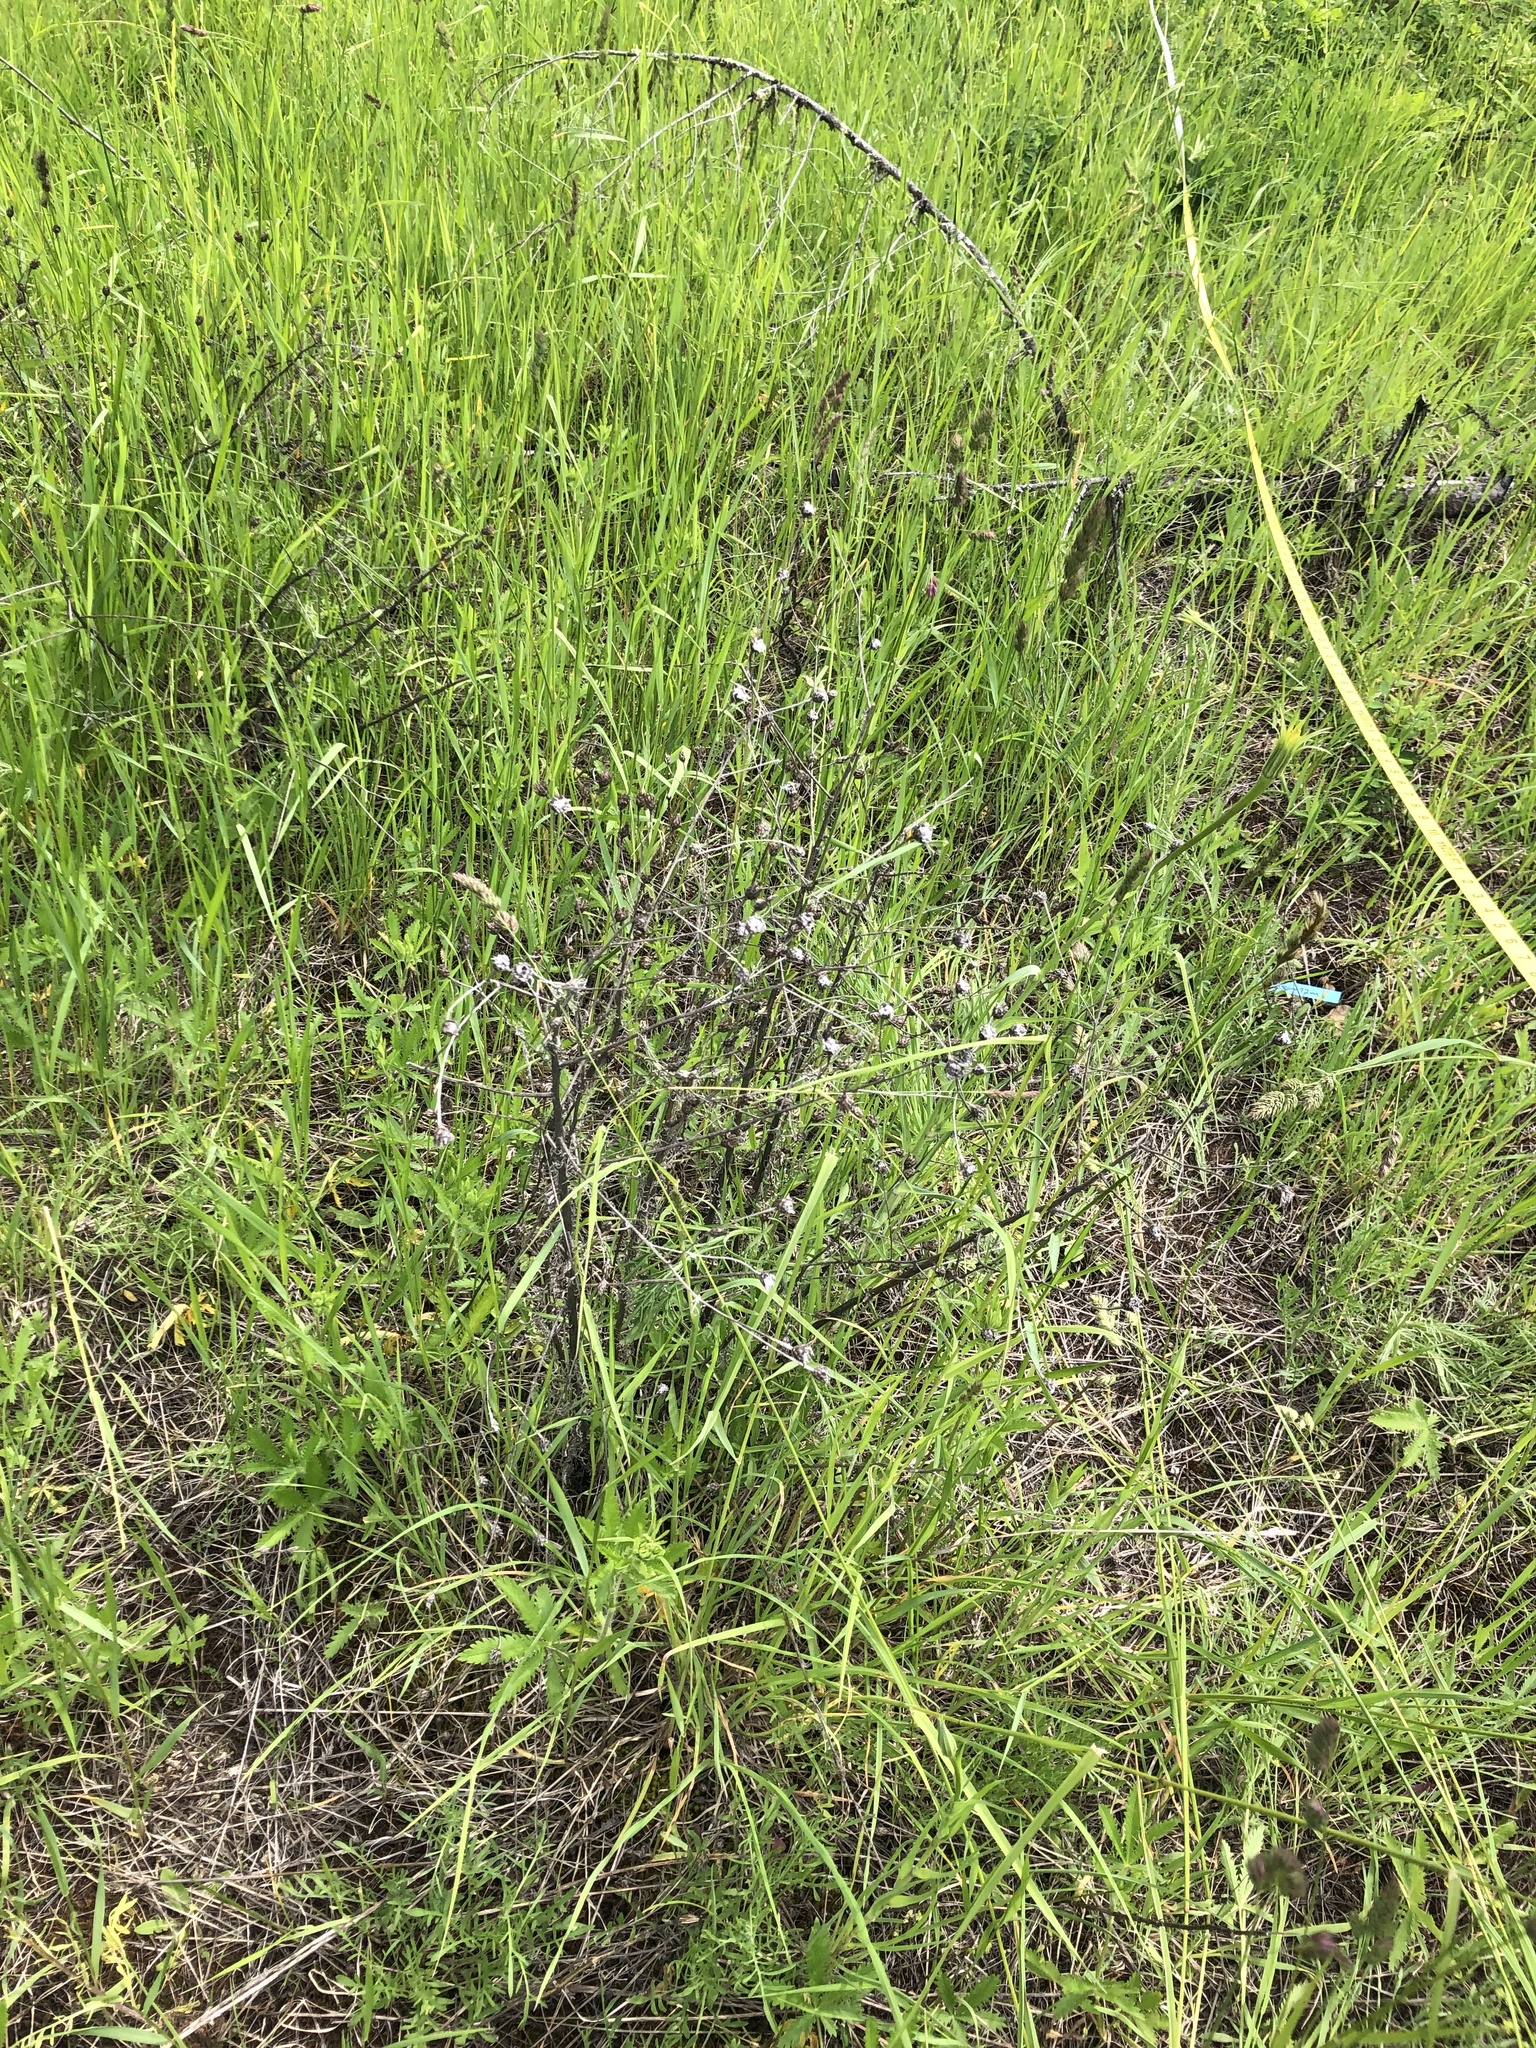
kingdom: Plantae
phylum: Tracheophyta
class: Magnoliopsida
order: Asterales
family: Asteraceae
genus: Centaurea
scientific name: Centaurea stoebe
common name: Spotted knapweed
